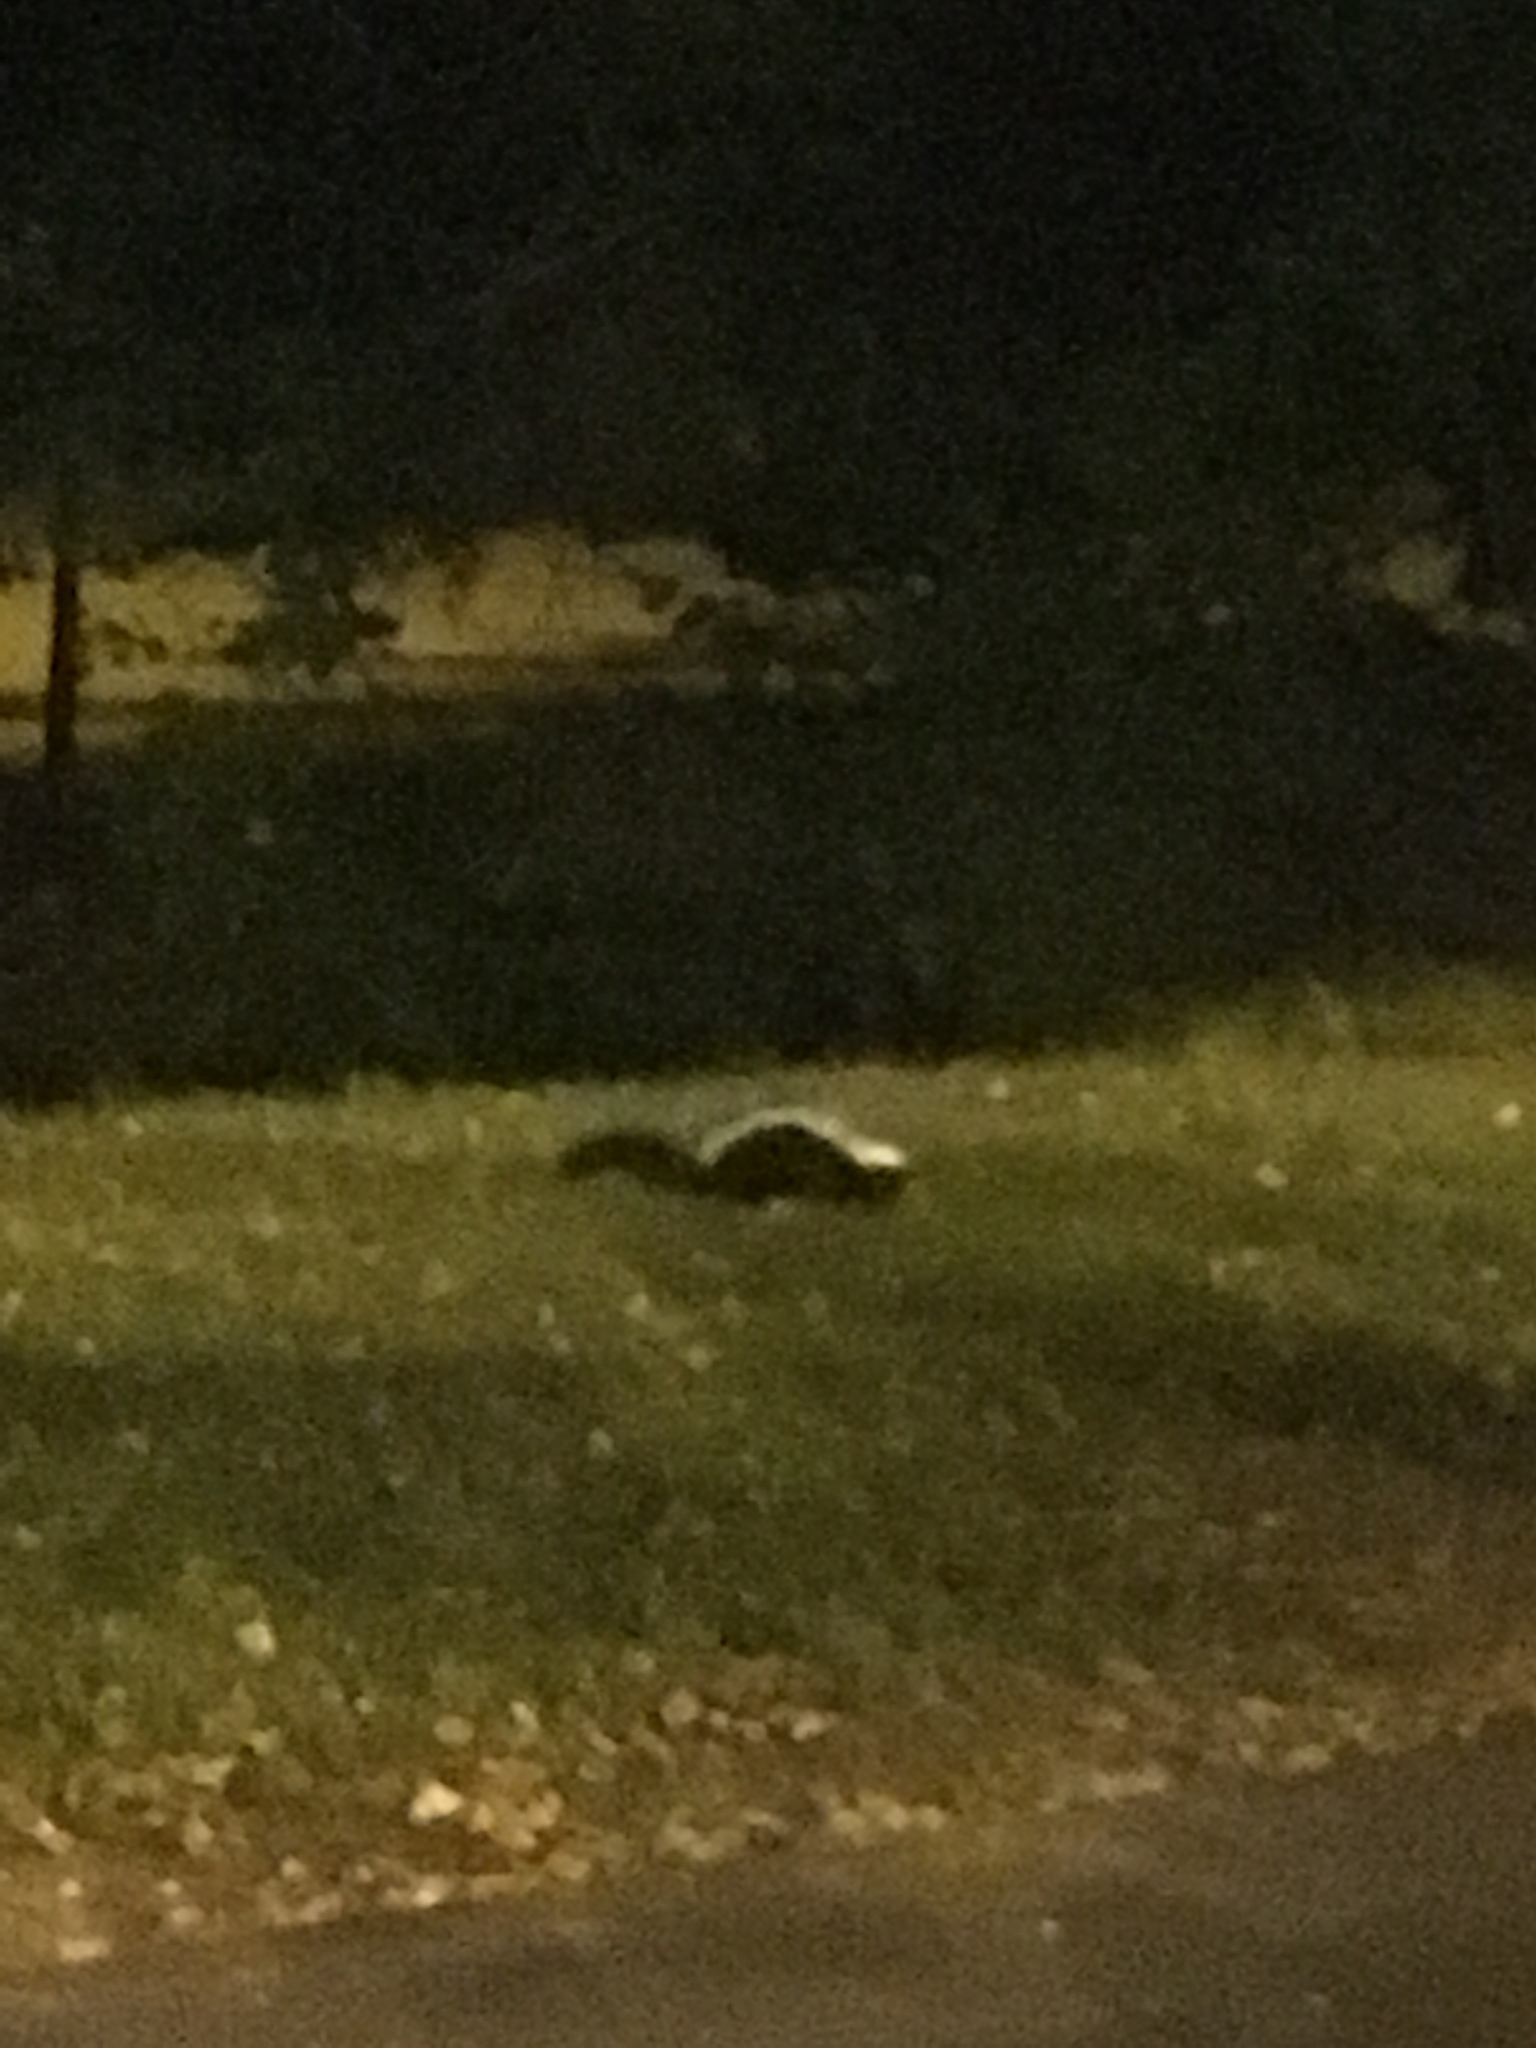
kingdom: Animalia
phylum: Chordata
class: Mammalia
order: Carnivora
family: Mephitidae
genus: Mephitis
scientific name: Mephitis mephitis
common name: Striped skunk
